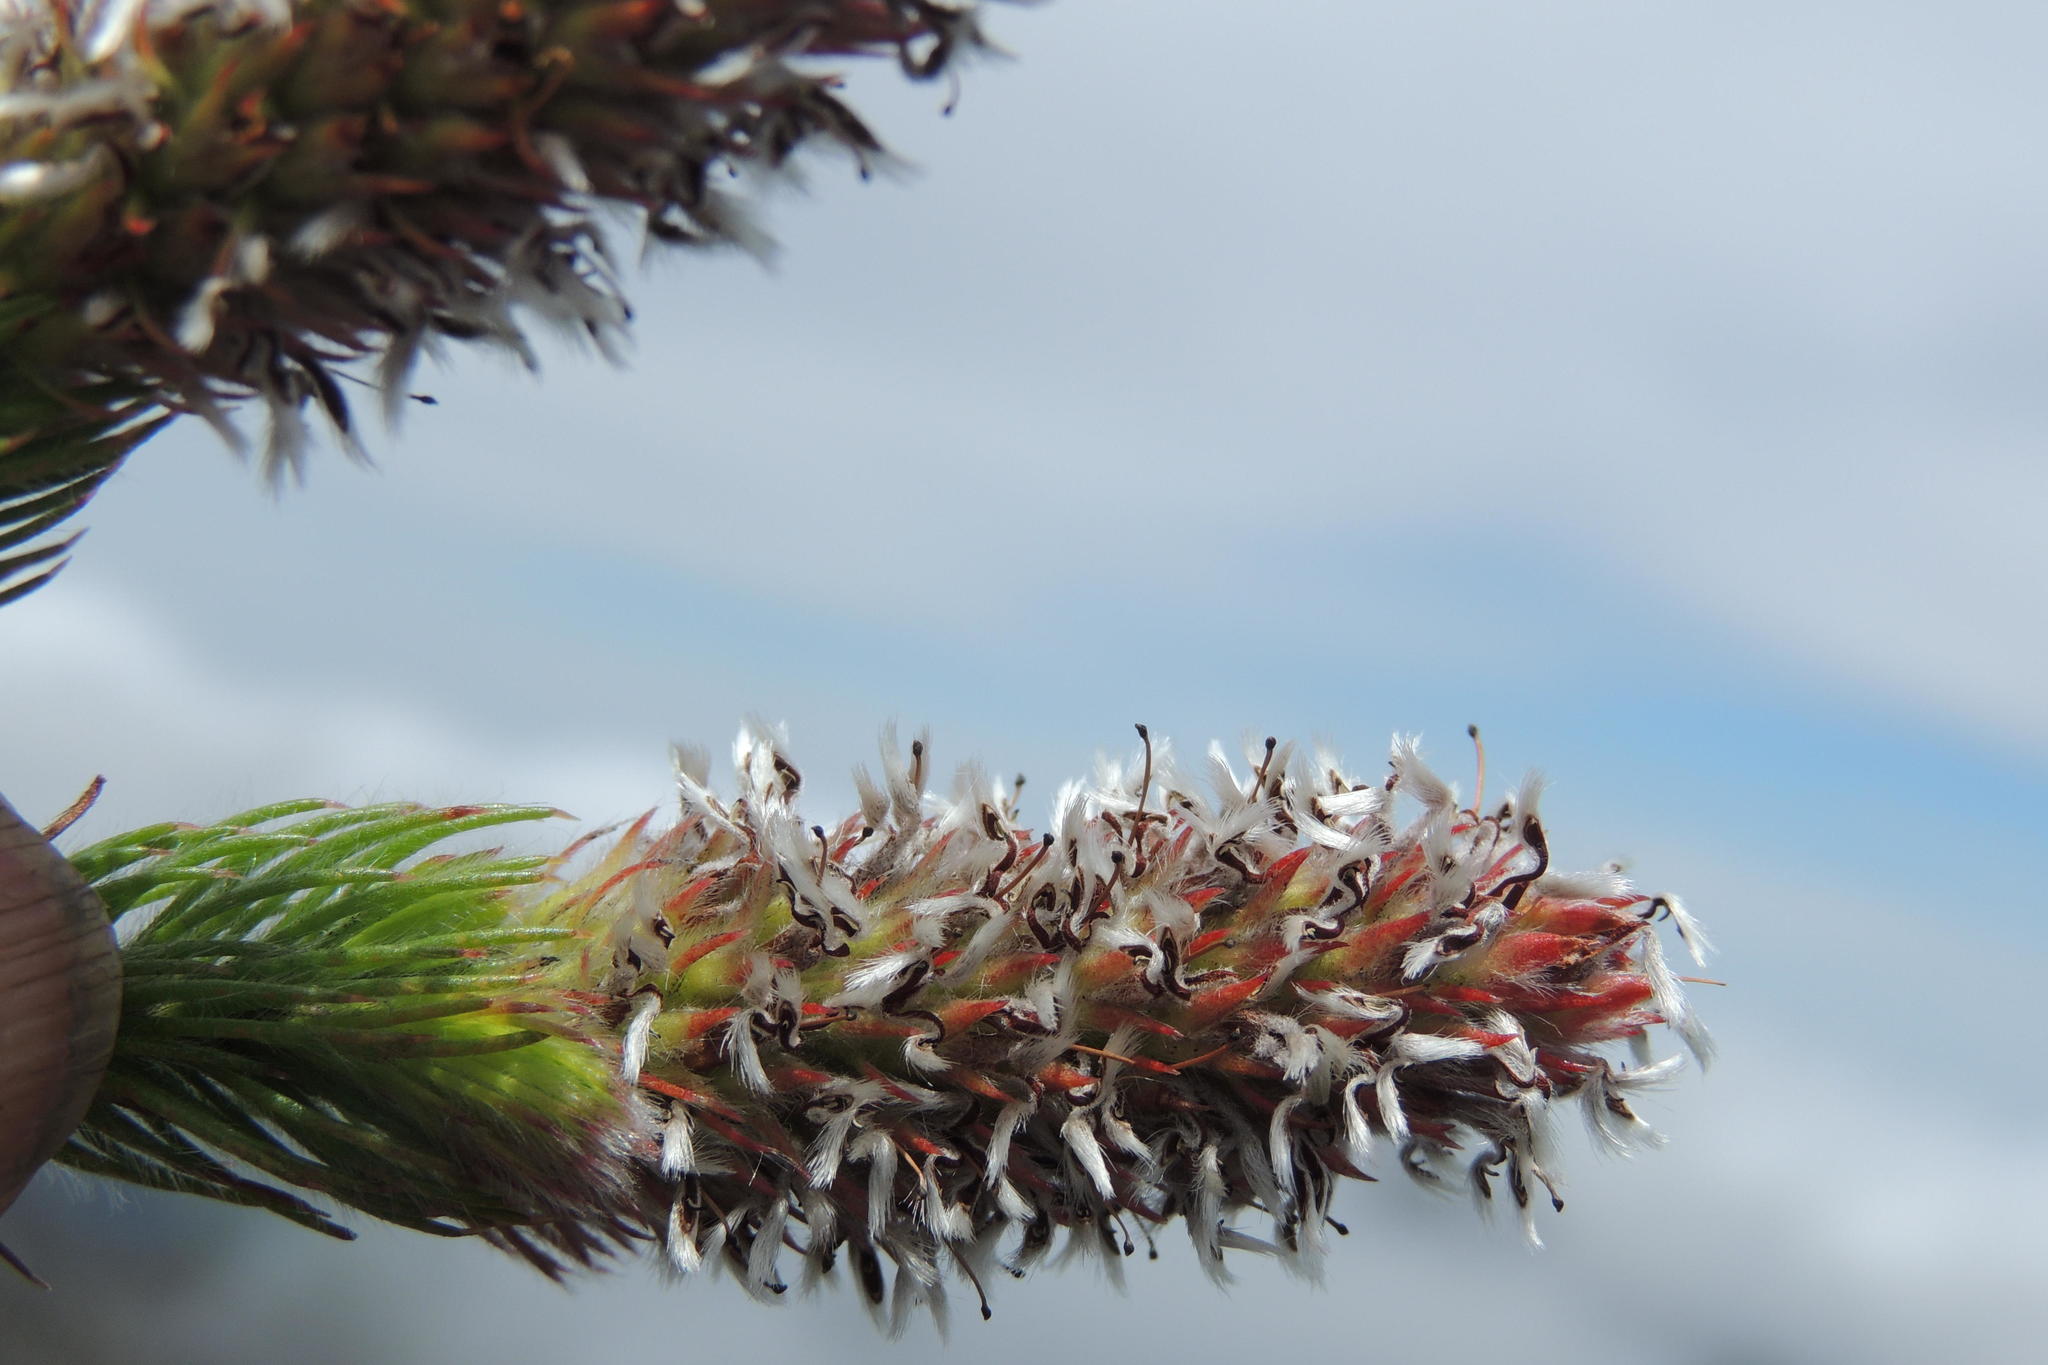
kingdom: Plantae
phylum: Tracheophyta
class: Magnoliopsida
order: Proteales
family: Proteaceae
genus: Spatalla
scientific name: Spatalla nubicola
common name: Medusa spoon
